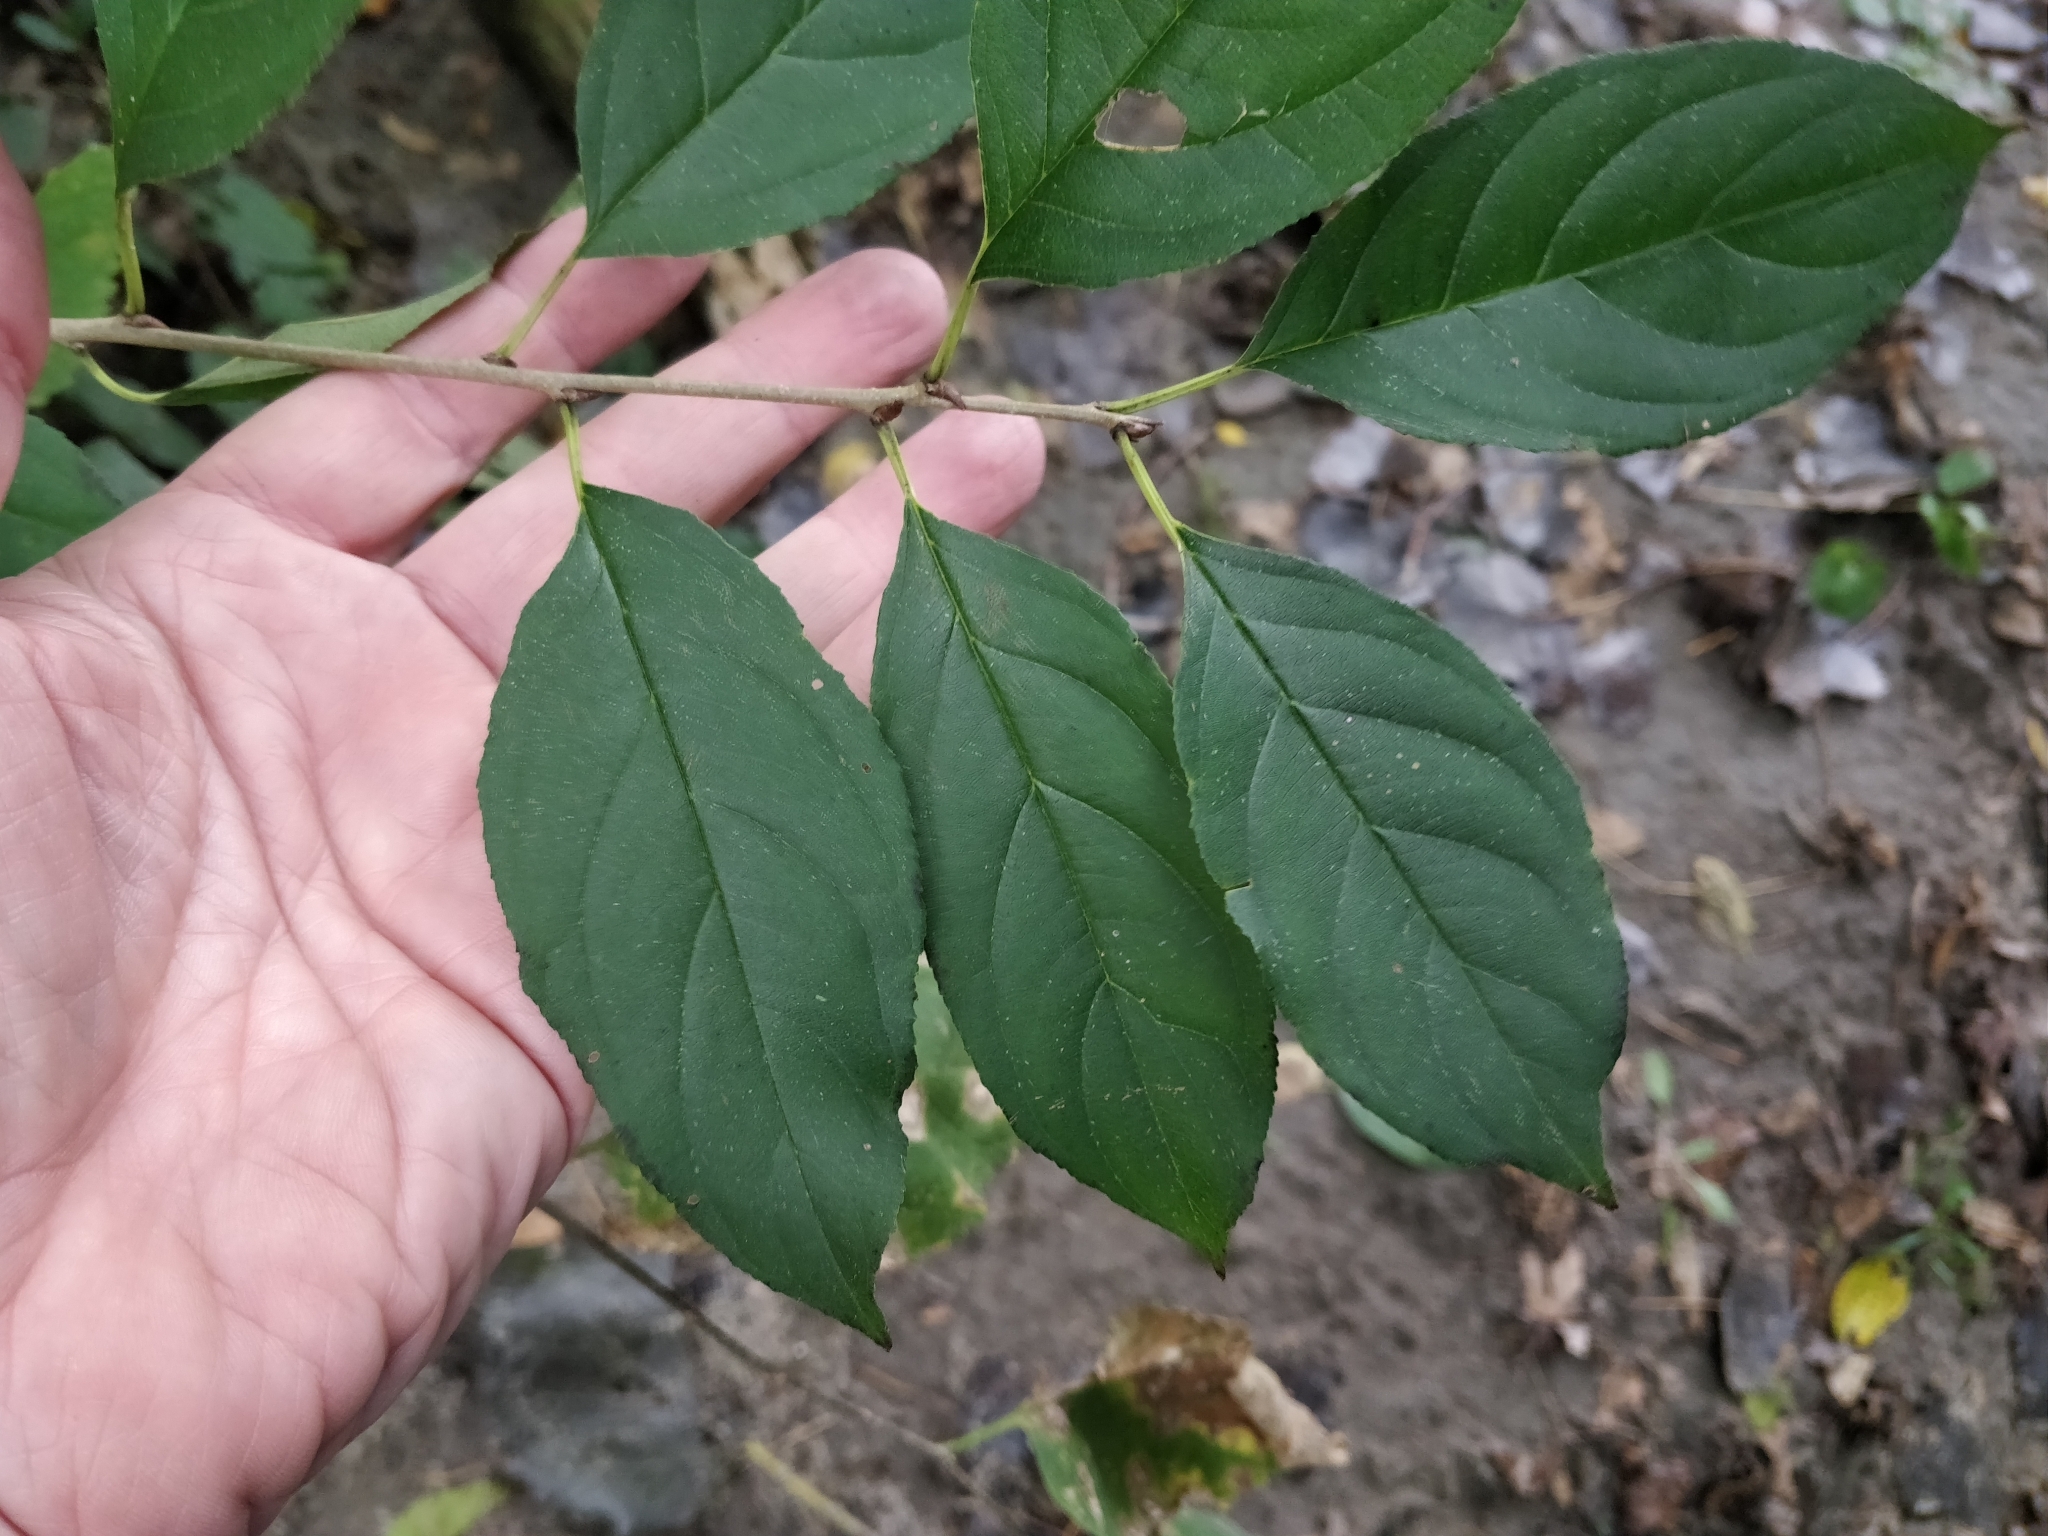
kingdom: Plantae
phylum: Tracheophyta
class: Magnoliopsida
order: Rosales
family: Rhamnaceae
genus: Rhamnus
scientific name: Rhamnus davuricus
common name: Dahurian buckthorn
